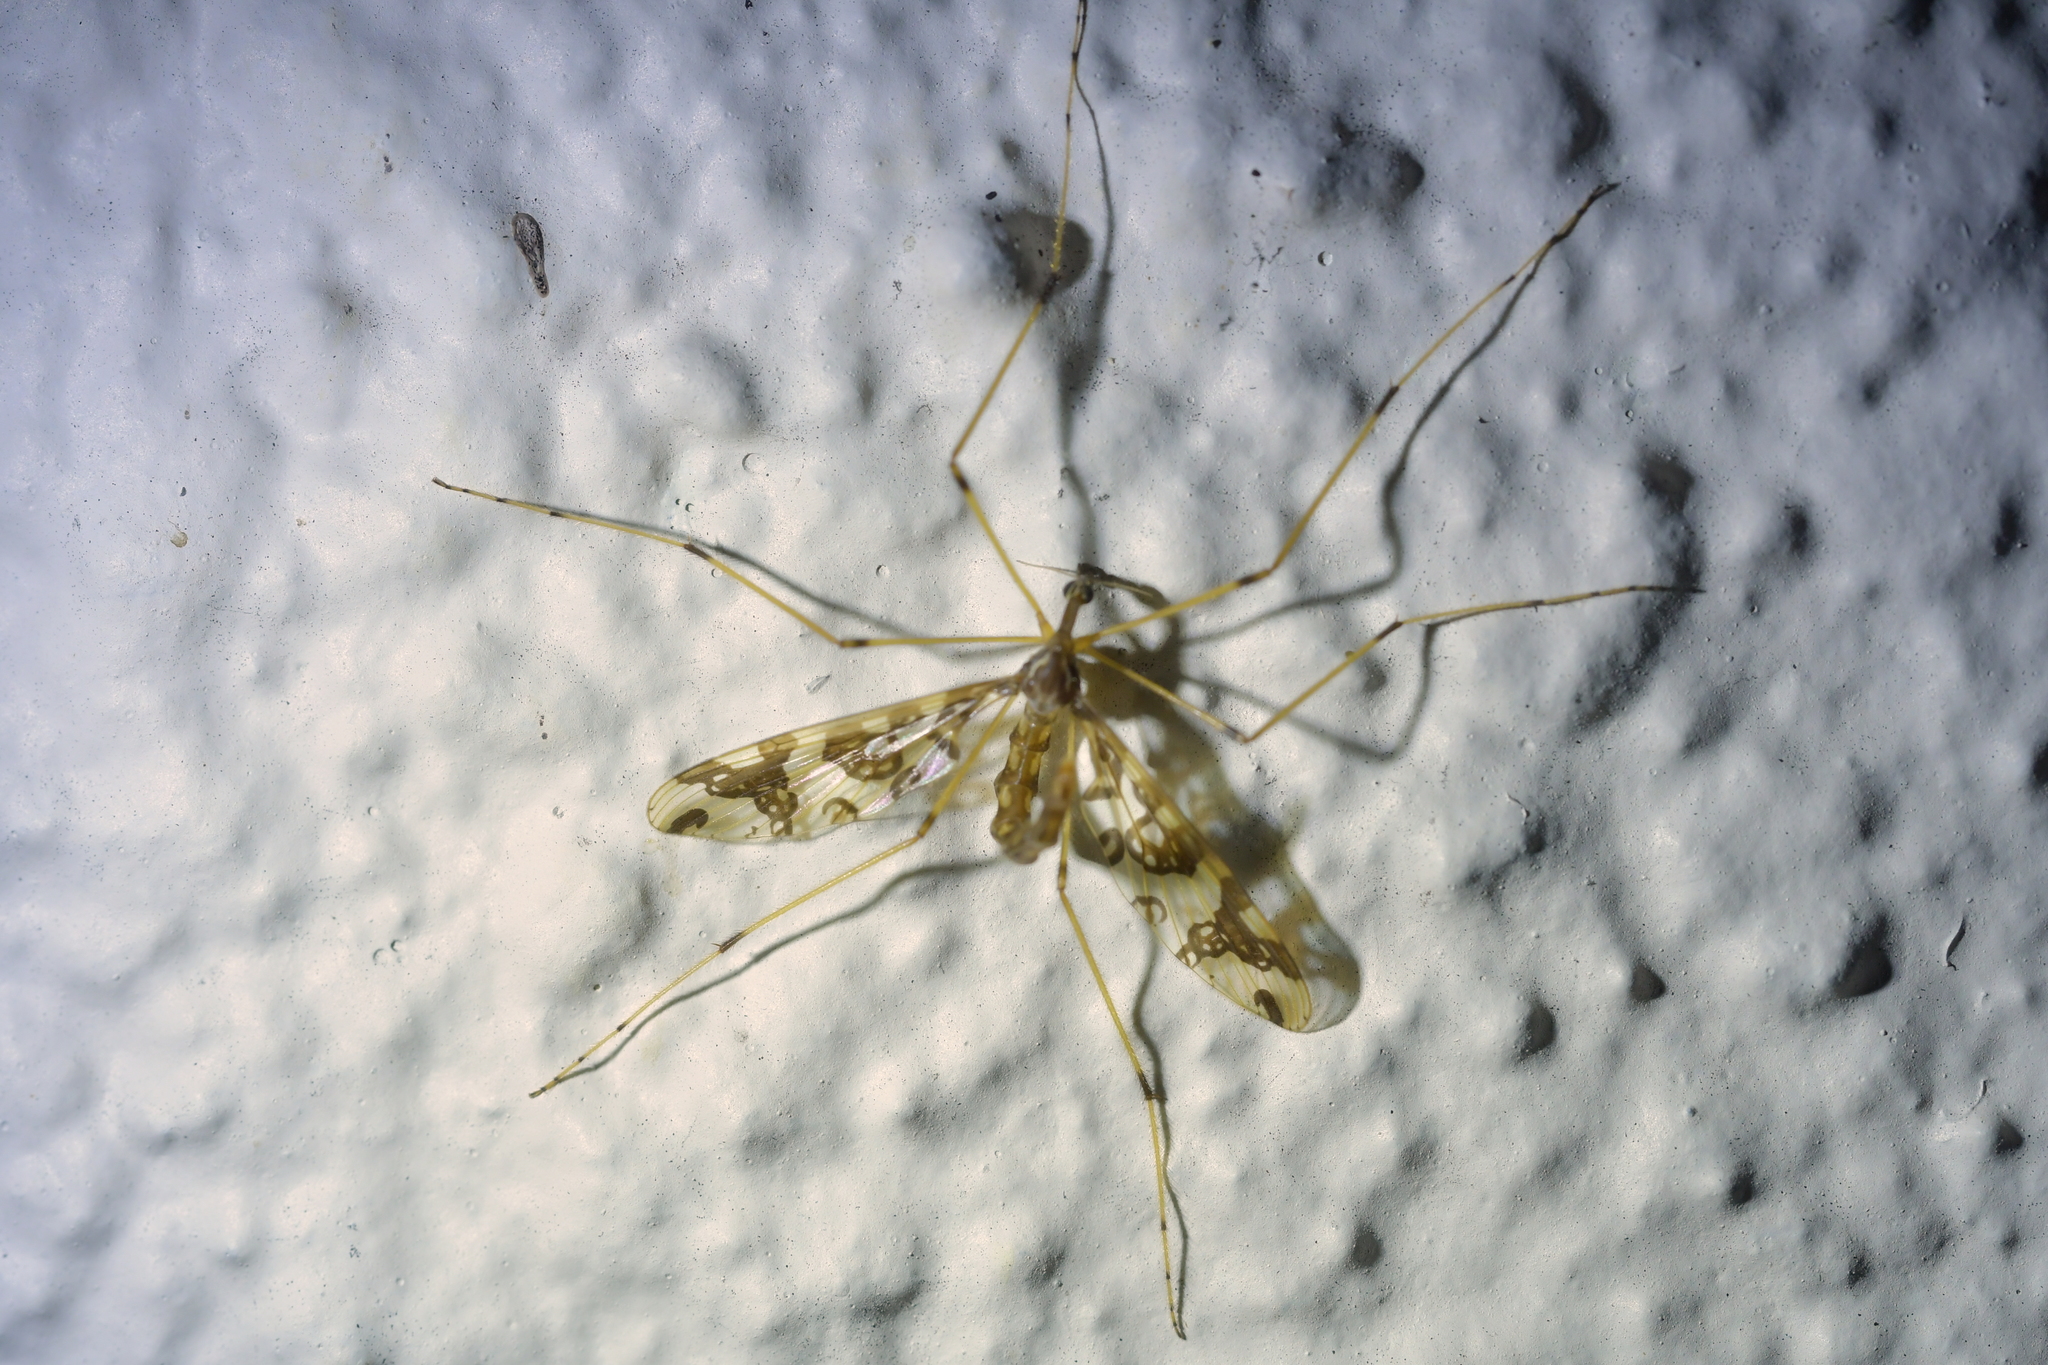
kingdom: Animalia
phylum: Arthropoda
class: Insecta
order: Diptera
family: Tanyderidae
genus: Tanyderus
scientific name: Tanyderus annuliferus
